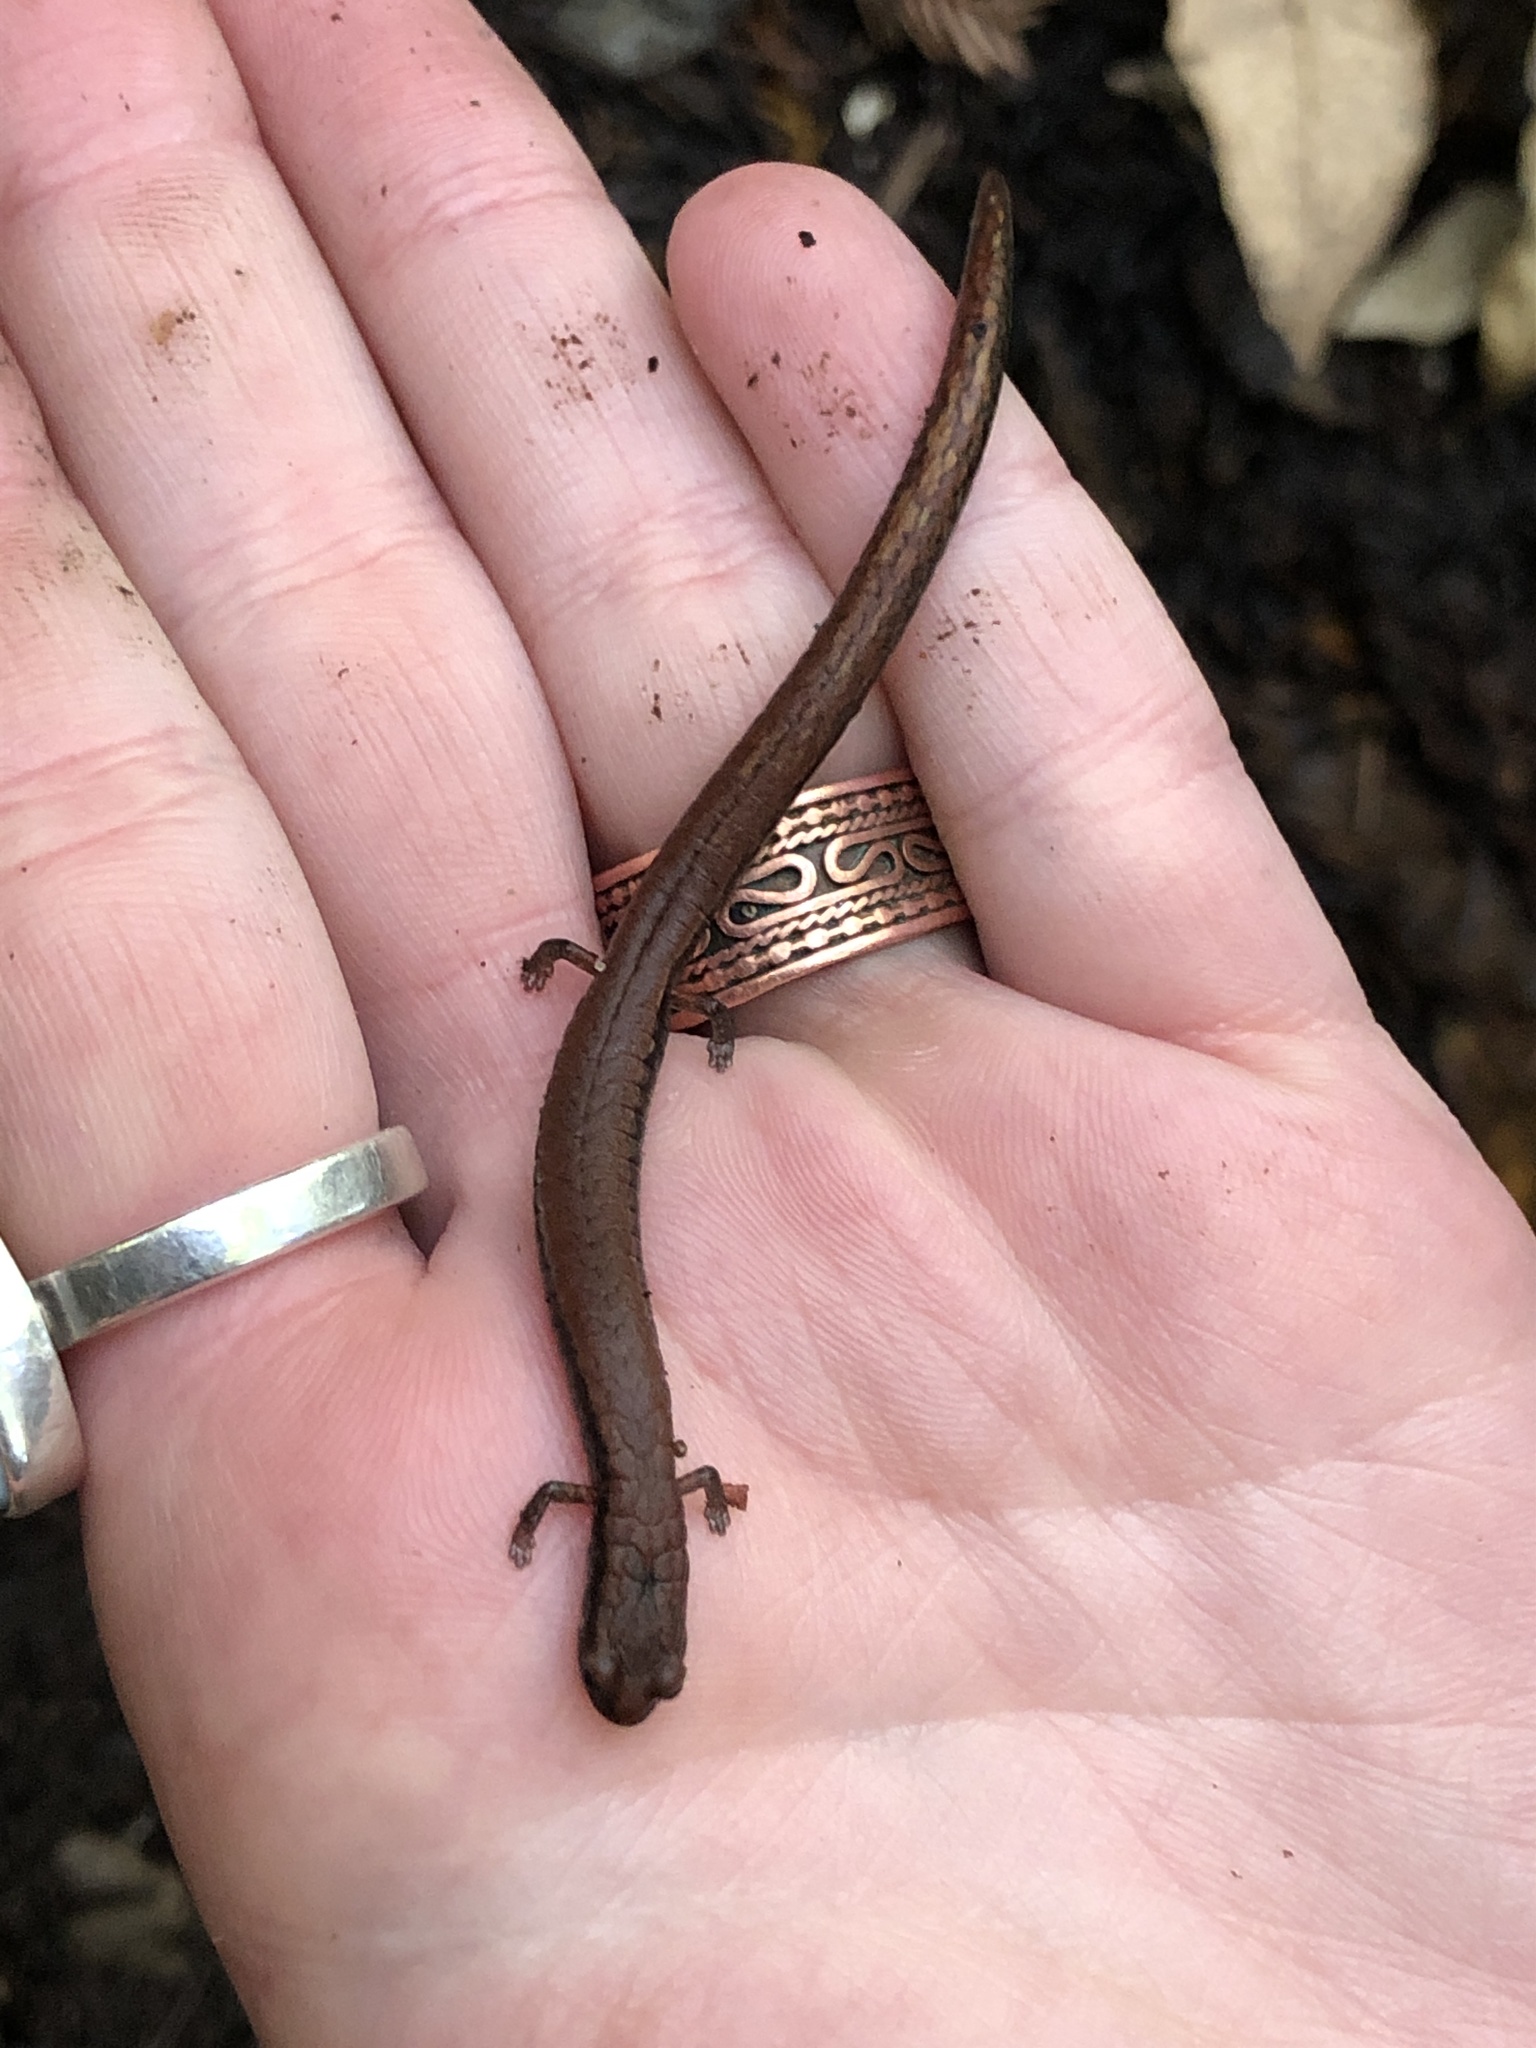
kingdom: Animalia
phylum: Chordata
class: Amphibia
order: Caudata
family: Plethodontidae
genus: Batrachoseps
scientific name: Batrachoseps attenuatus
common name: California slender salamander
